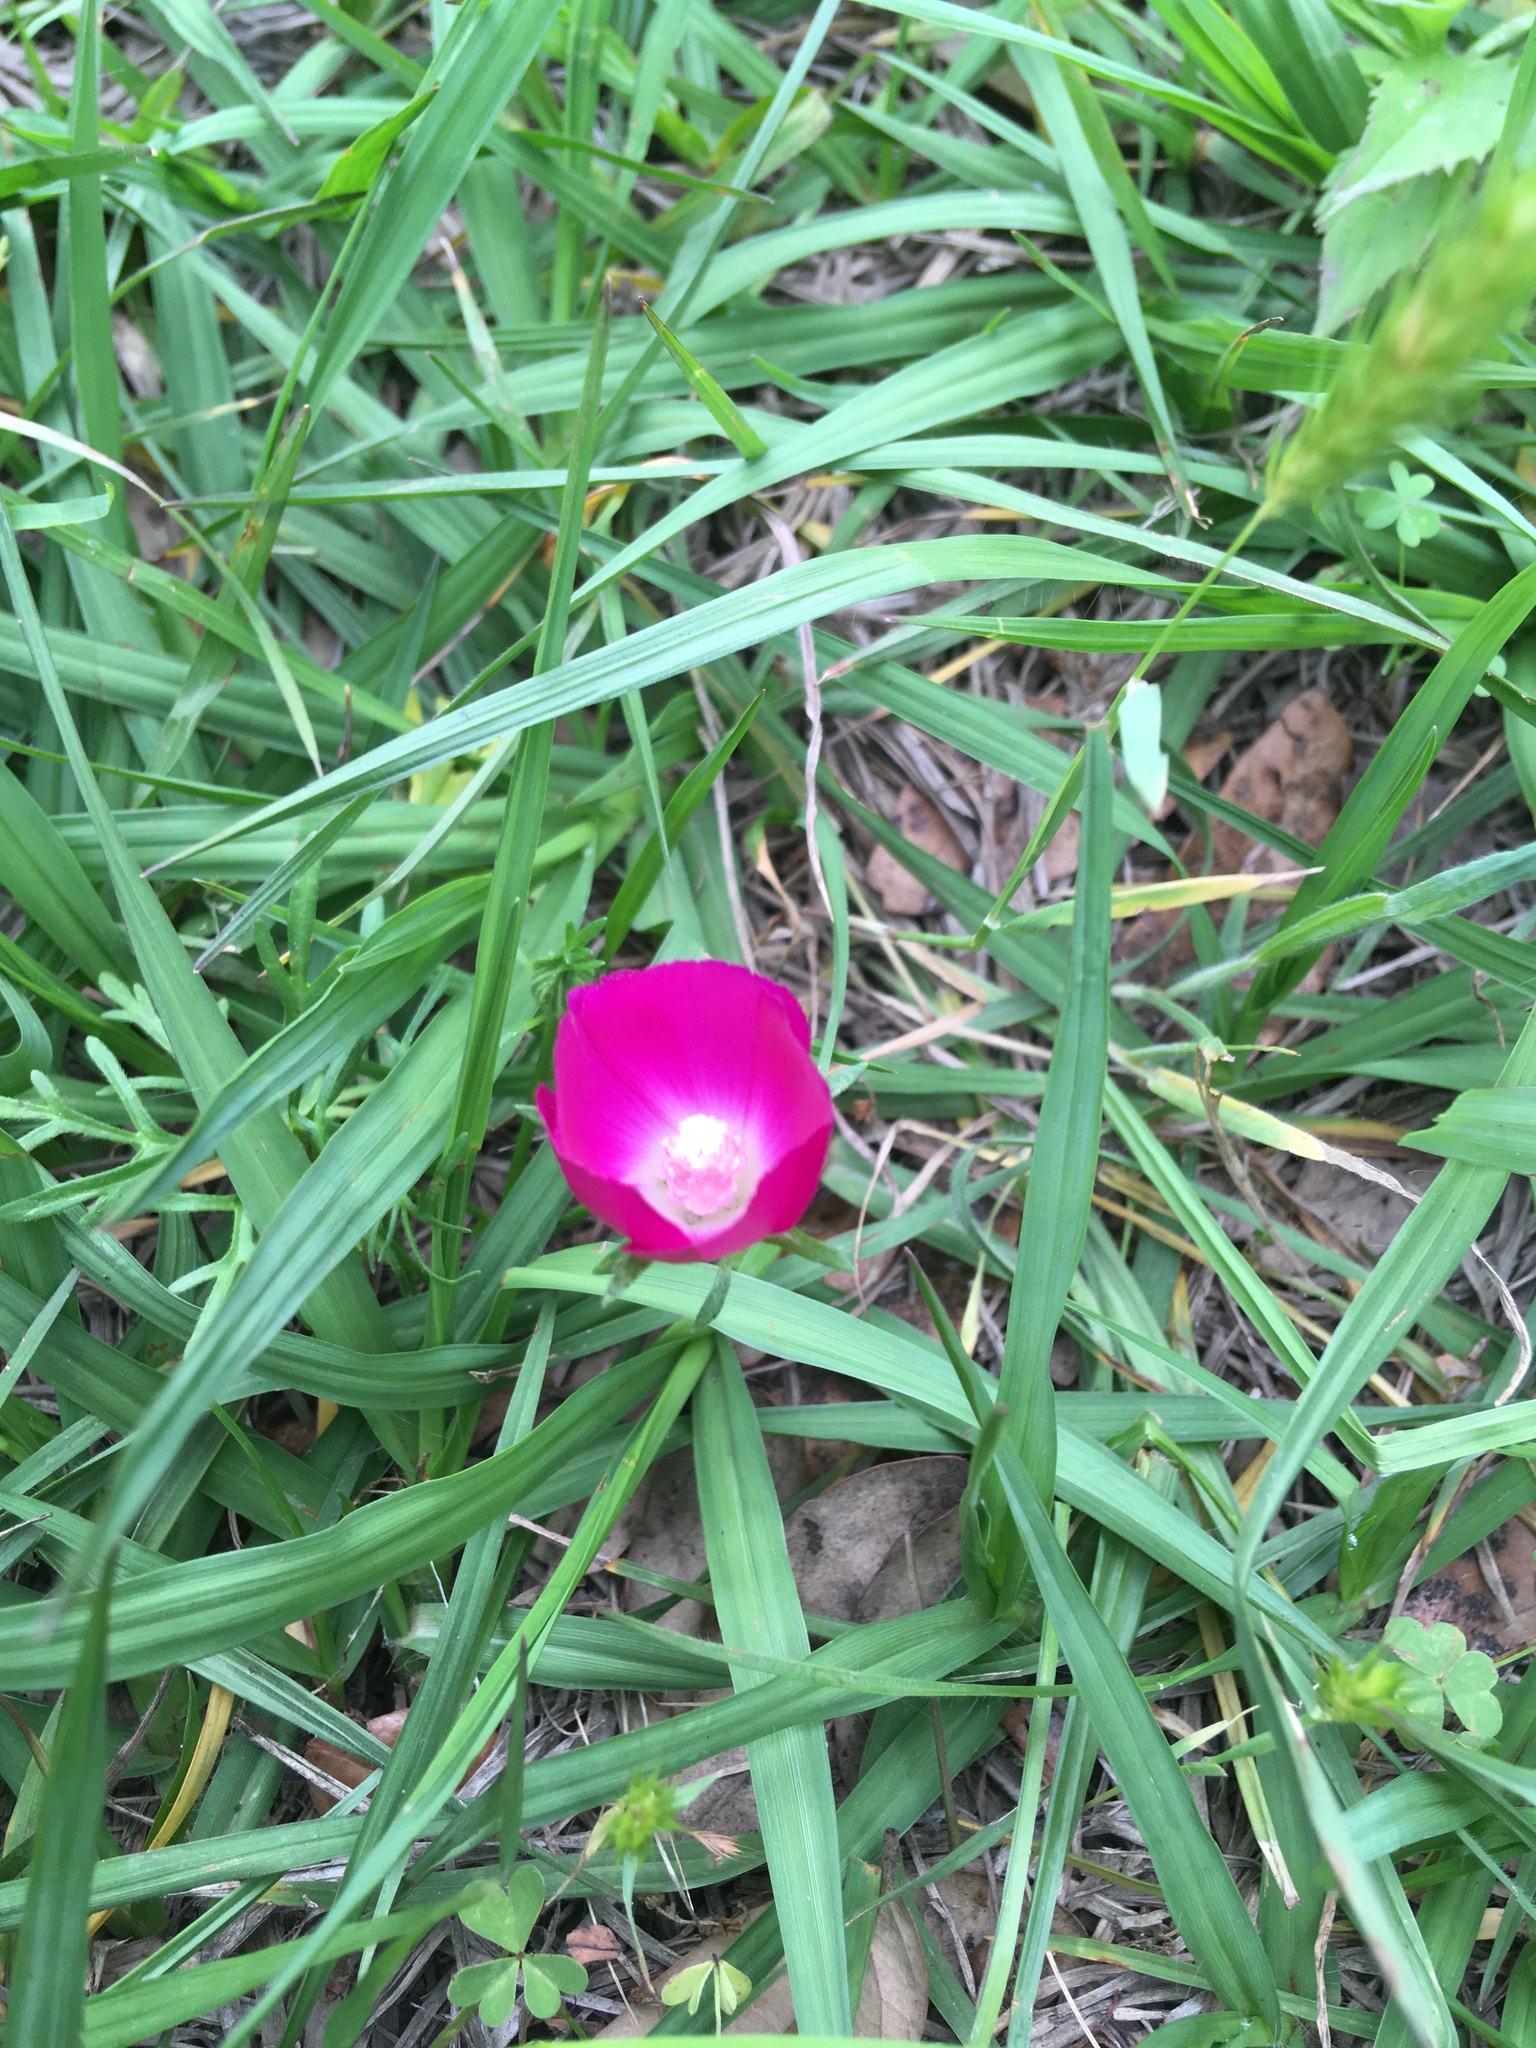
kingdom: Plantae
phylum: Tracheophyta
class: Magnoliopsida
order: Malvales
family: Malvaceae
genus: Callirhoe
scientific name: Callirhoe involucrata
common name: Purple poppy-mallow
